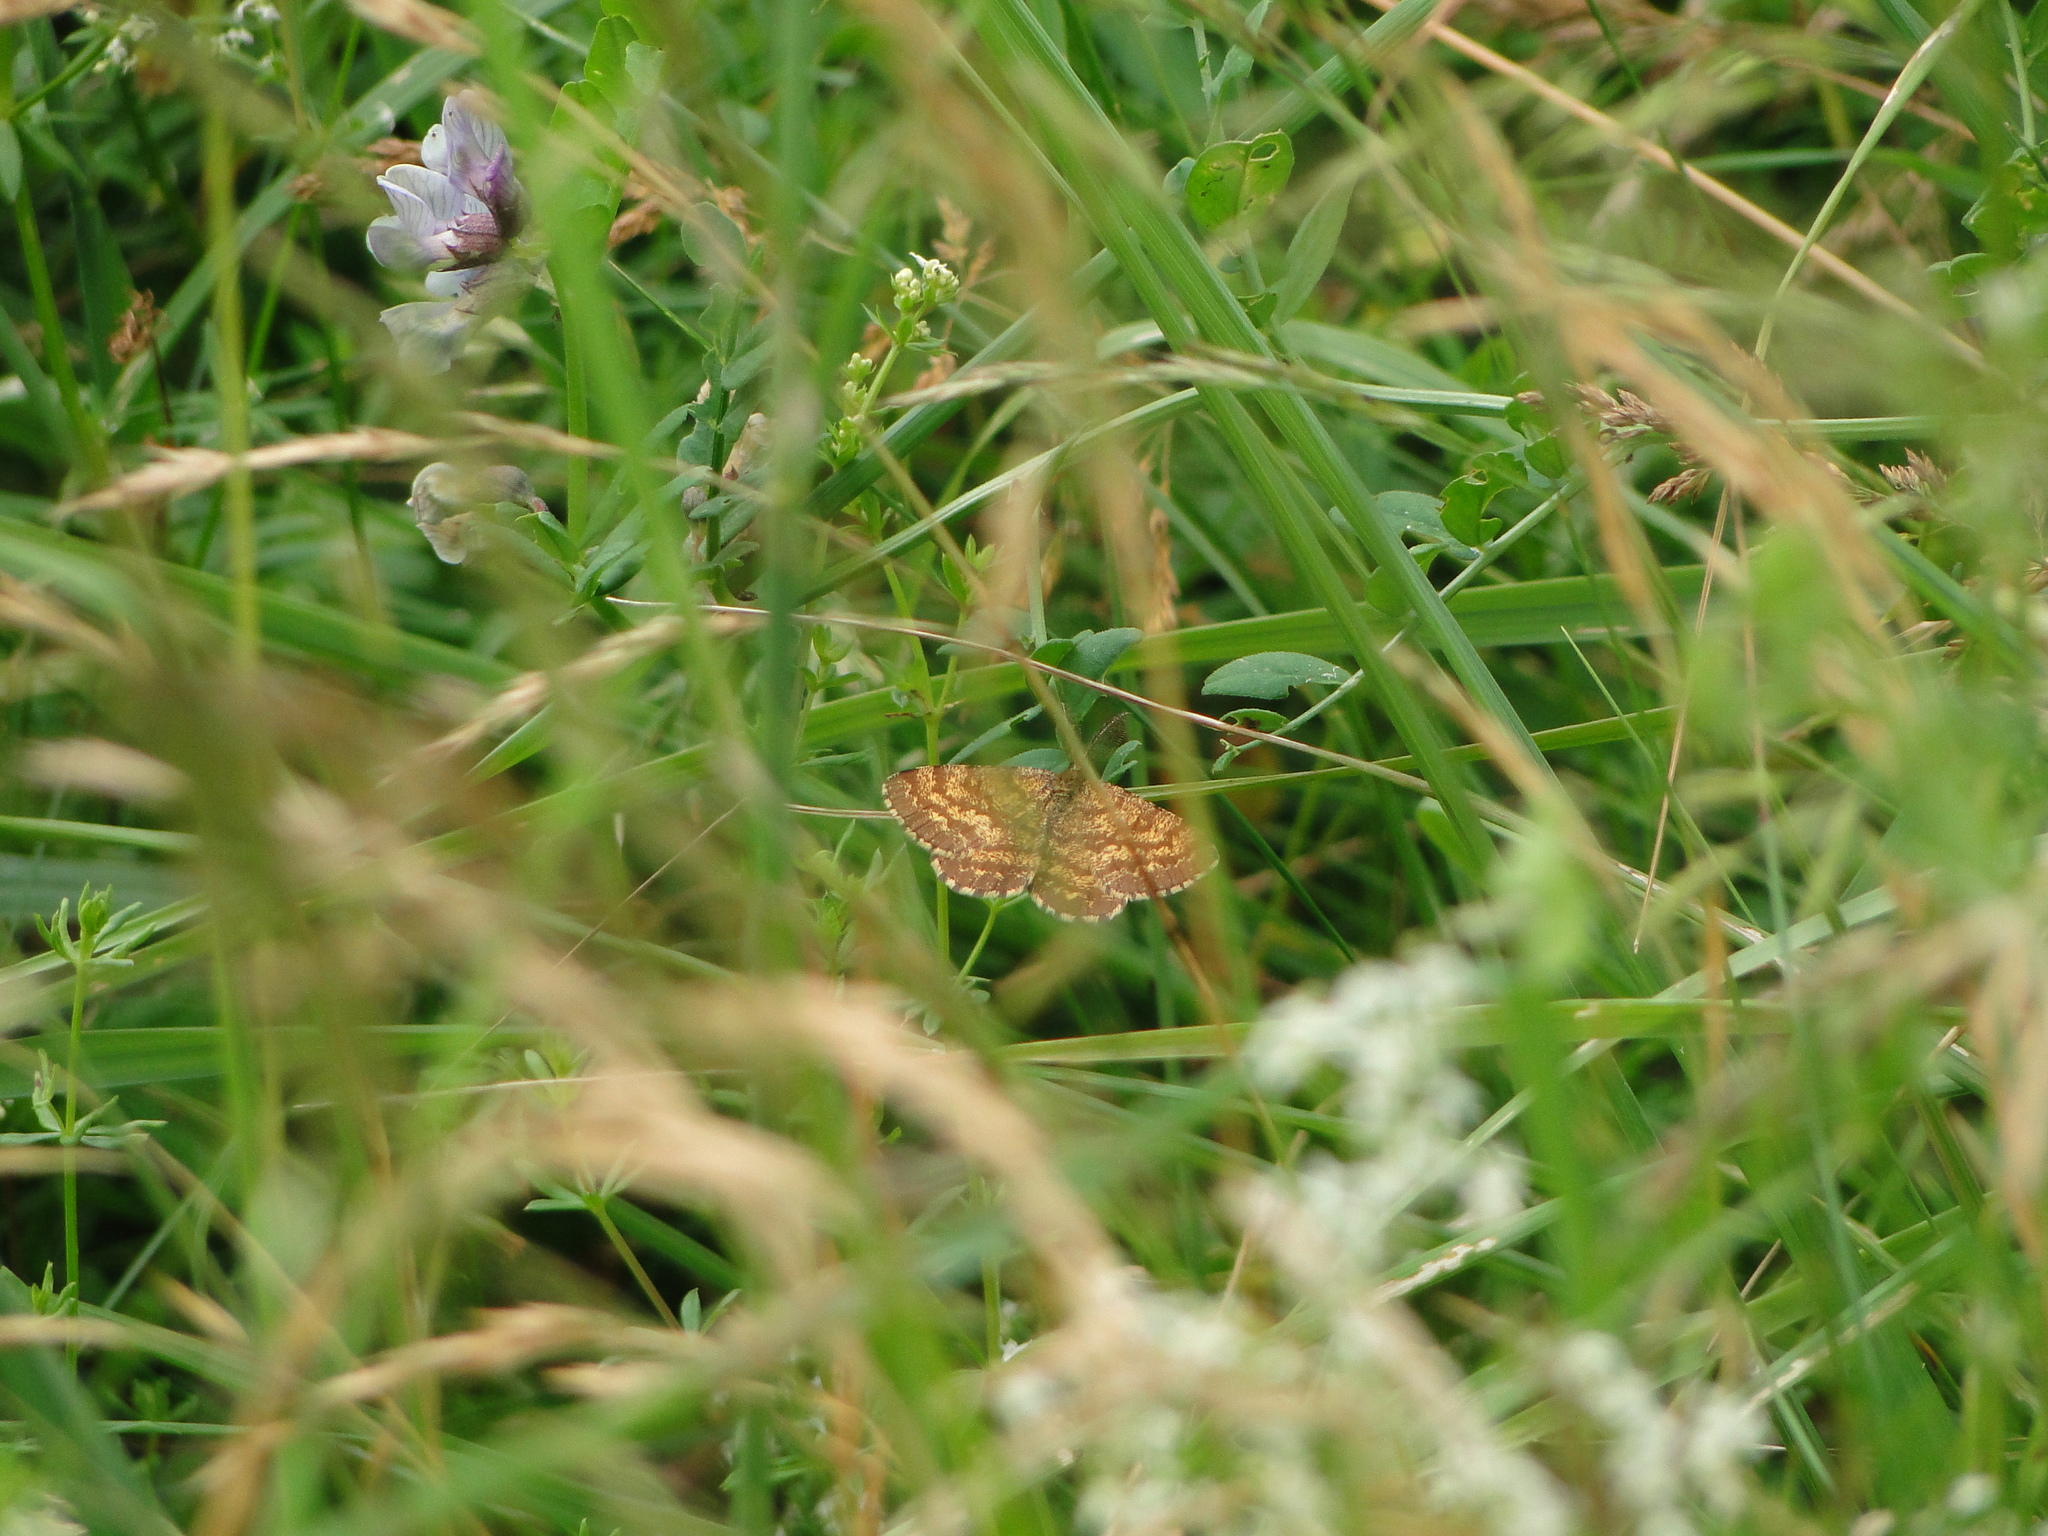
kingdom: Animalia
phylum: Arthropoda
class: Insecta
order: Lepidoptera
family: Geometridae
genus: Ematurga
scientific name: Ematurga atomaria
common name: Common heath
